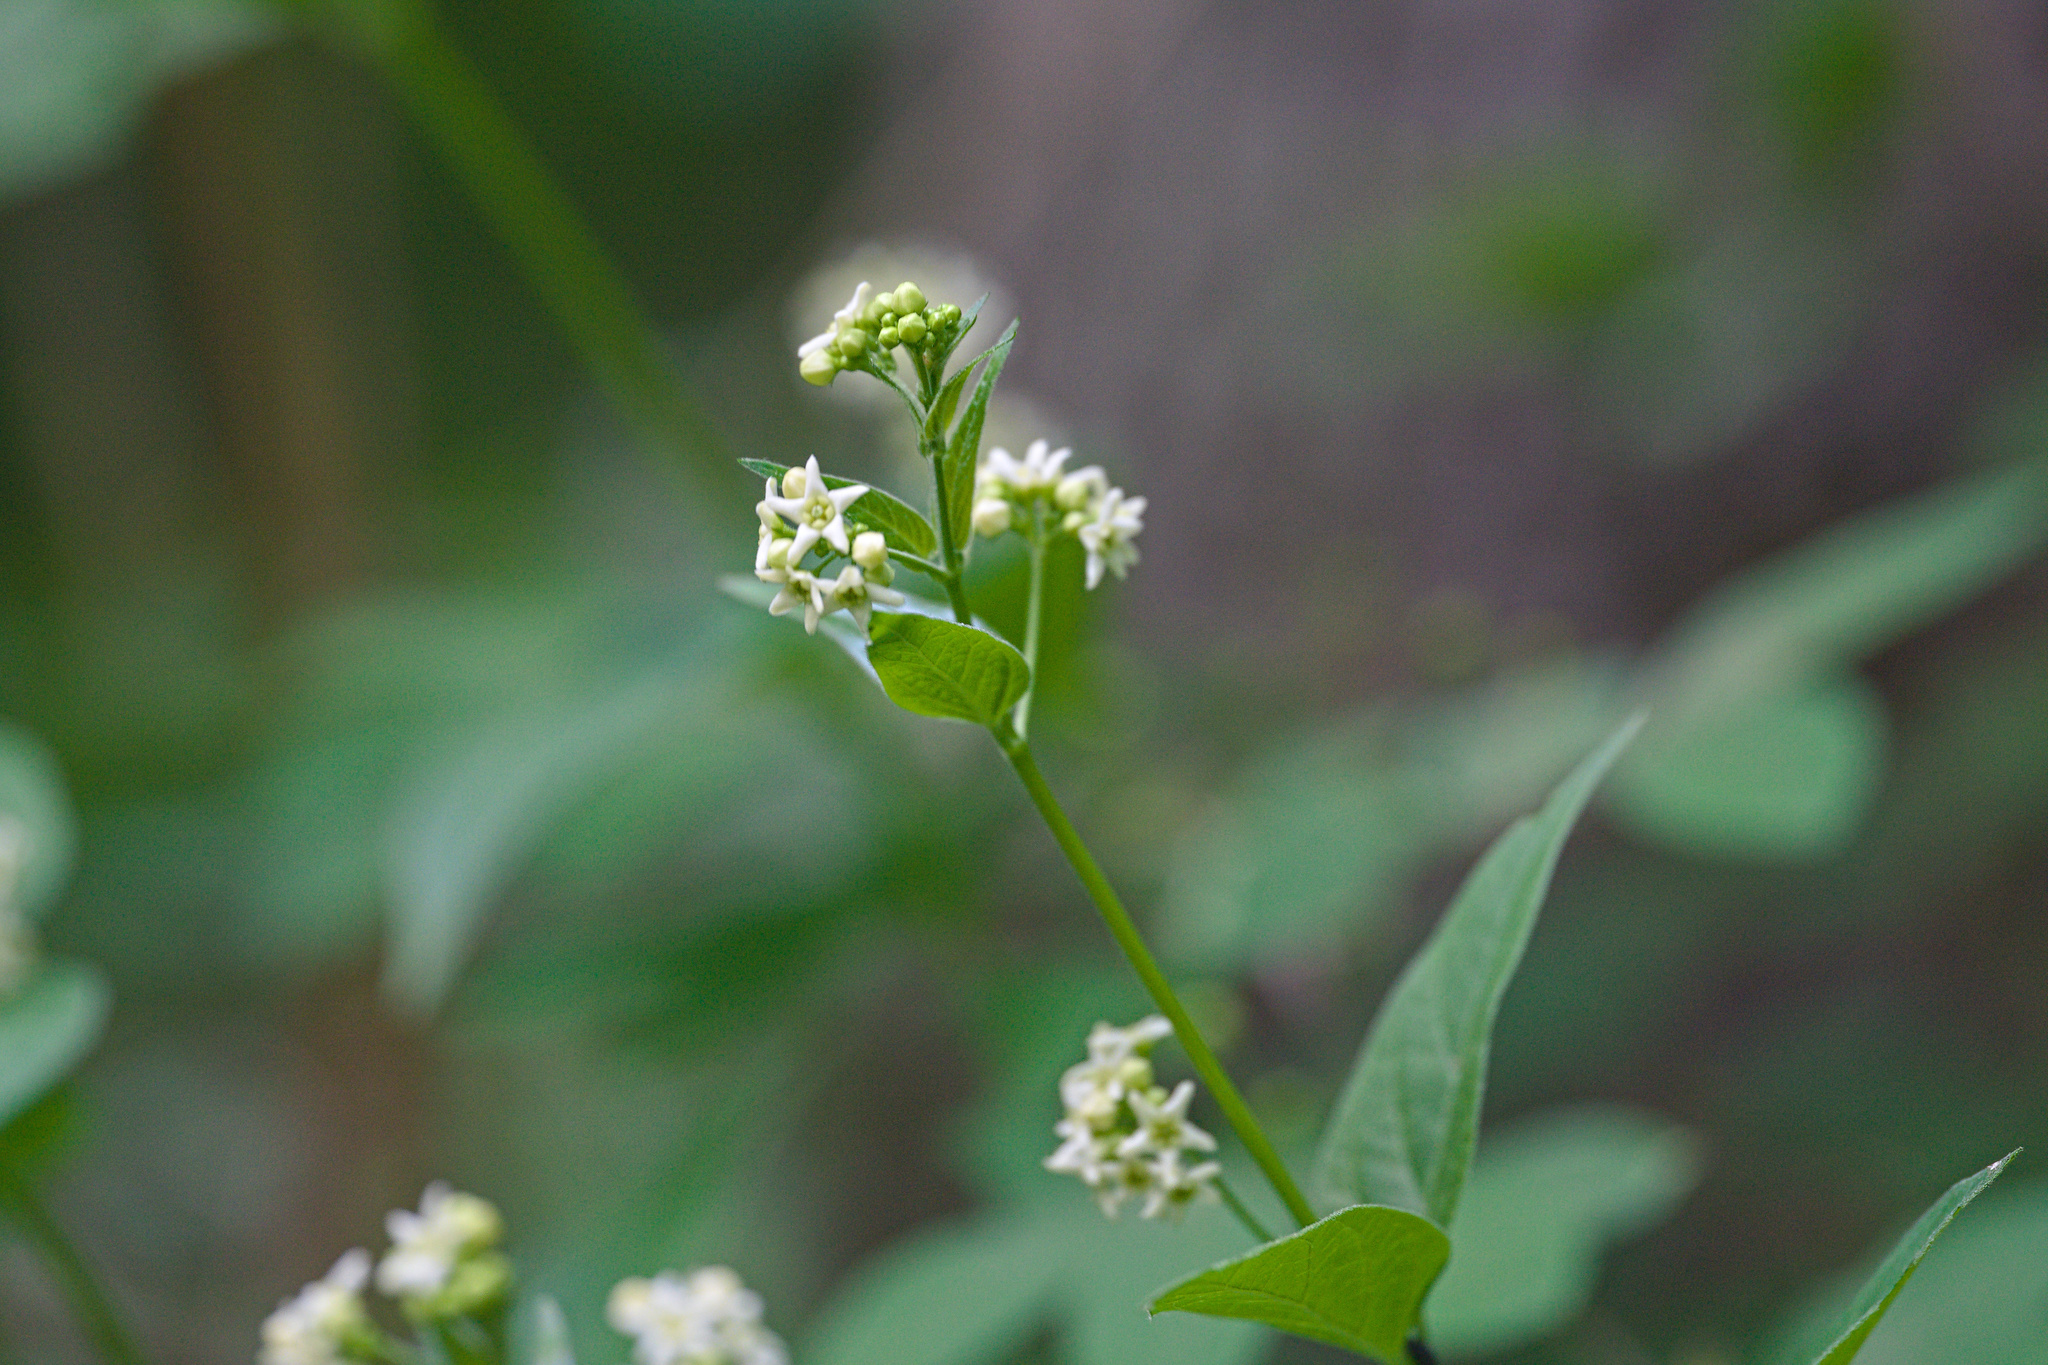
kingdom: Plantae
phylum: Tracheophyta
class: Magnoliopsida
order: Gentianales
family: Apocynaceae
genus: Vincetoxicum
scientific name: Vincetoxicum hirundinaria
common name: White swallowwort
